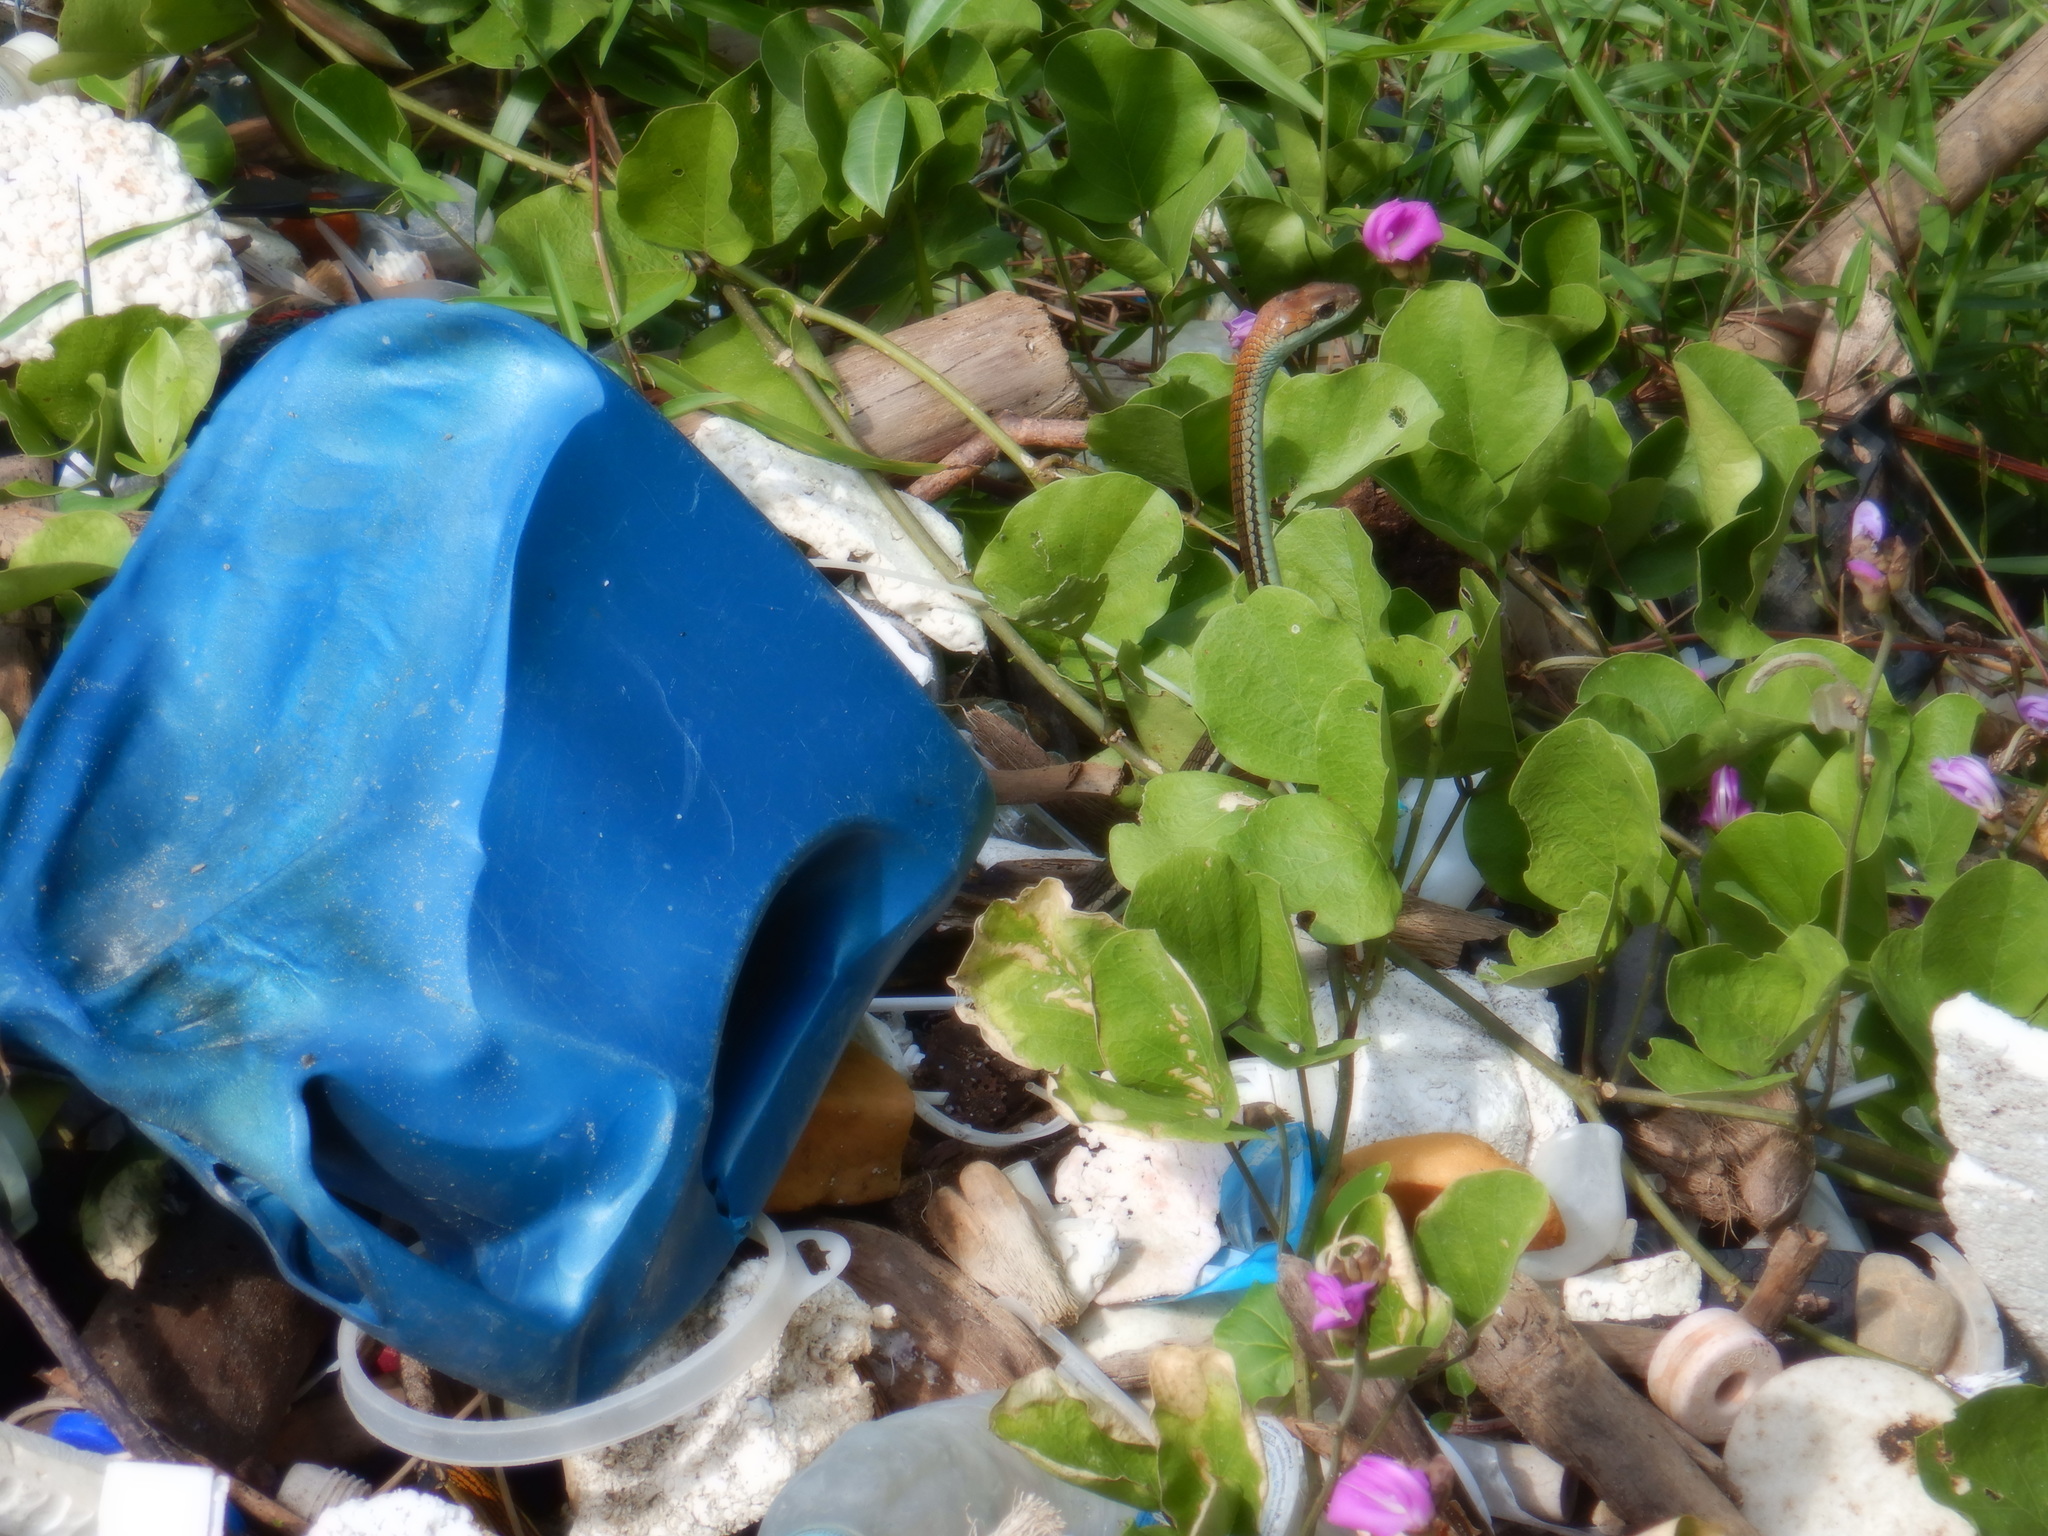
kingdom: Animalia
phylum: Chordata
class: Squamata
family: Colubridae
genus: Dendrelaphis
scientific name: Dendrelaphis caudolineatus
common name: Striped bronzeback
